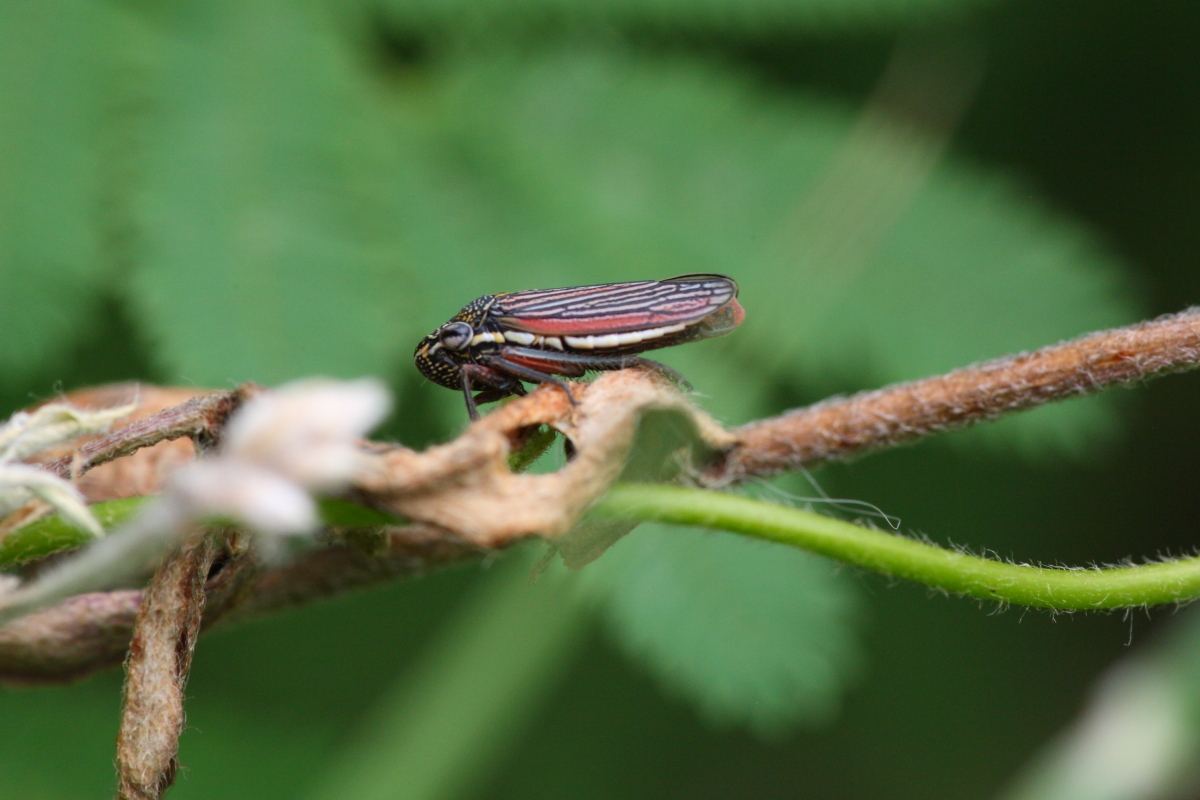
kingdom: Animalia
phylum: Arthropoda
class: Insecta
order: Hemiptera
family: Cicadellidae
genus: Cuerna
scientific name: Cuerna costalis
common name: Lateral-lined sharpshooter
